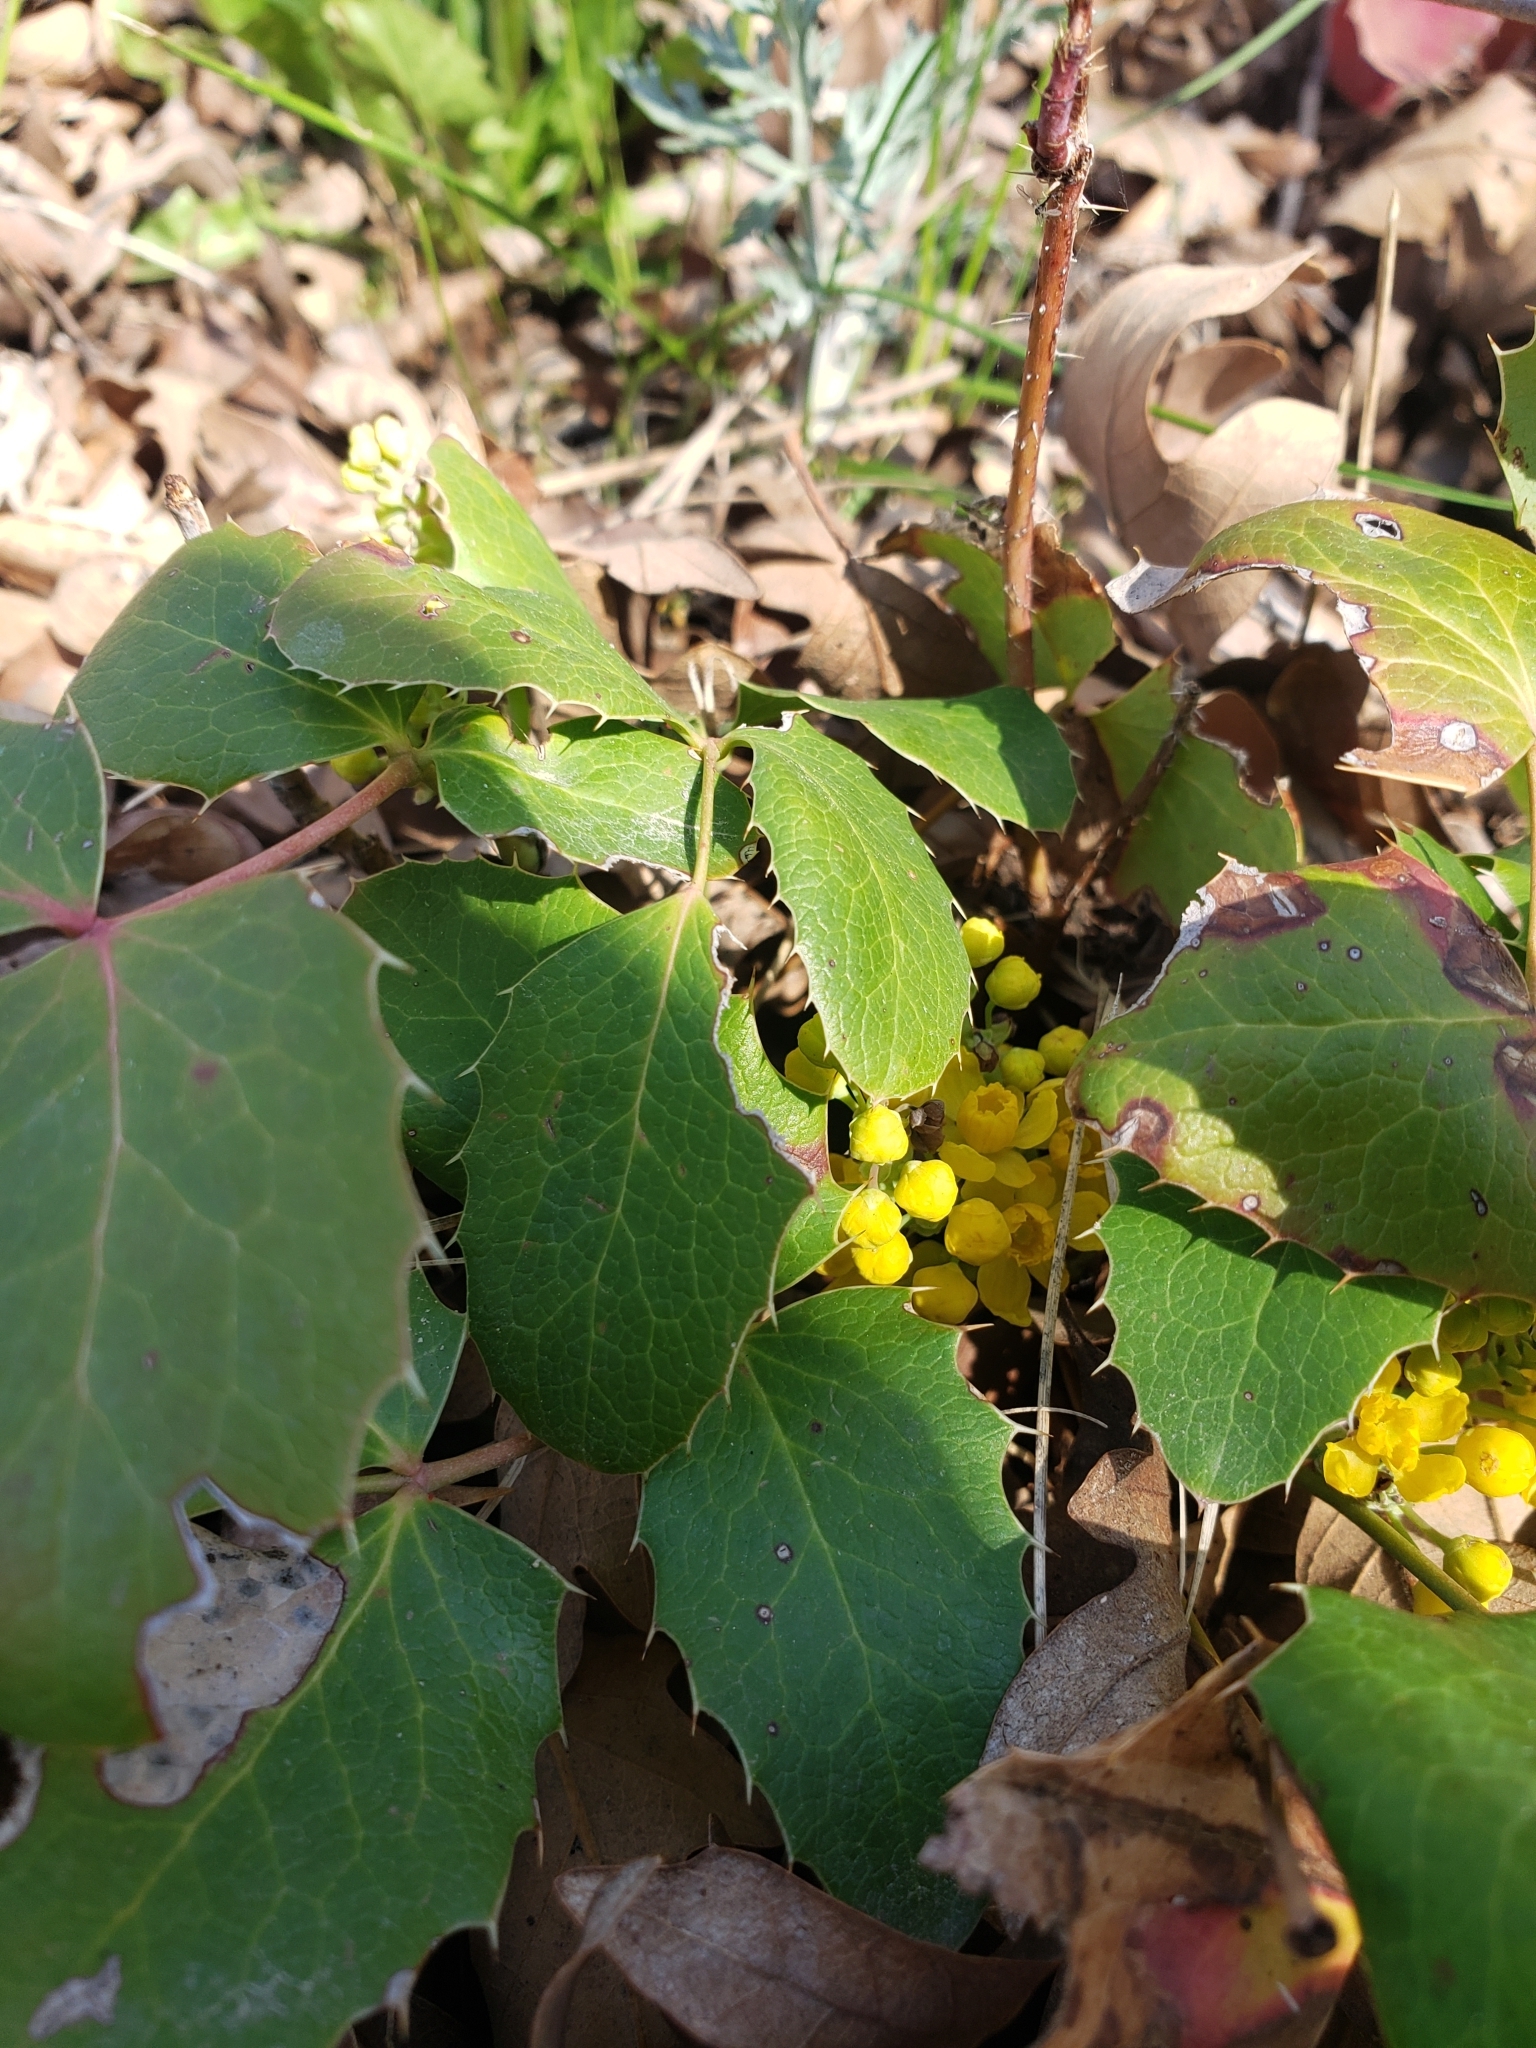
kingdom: Plantae
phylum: Tracheophyta
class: Magnoliopsida
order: Ranunculales
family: Berberidaceae
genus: Mahonia
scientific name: Mahonia repens
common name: Creeping oregon-grape
